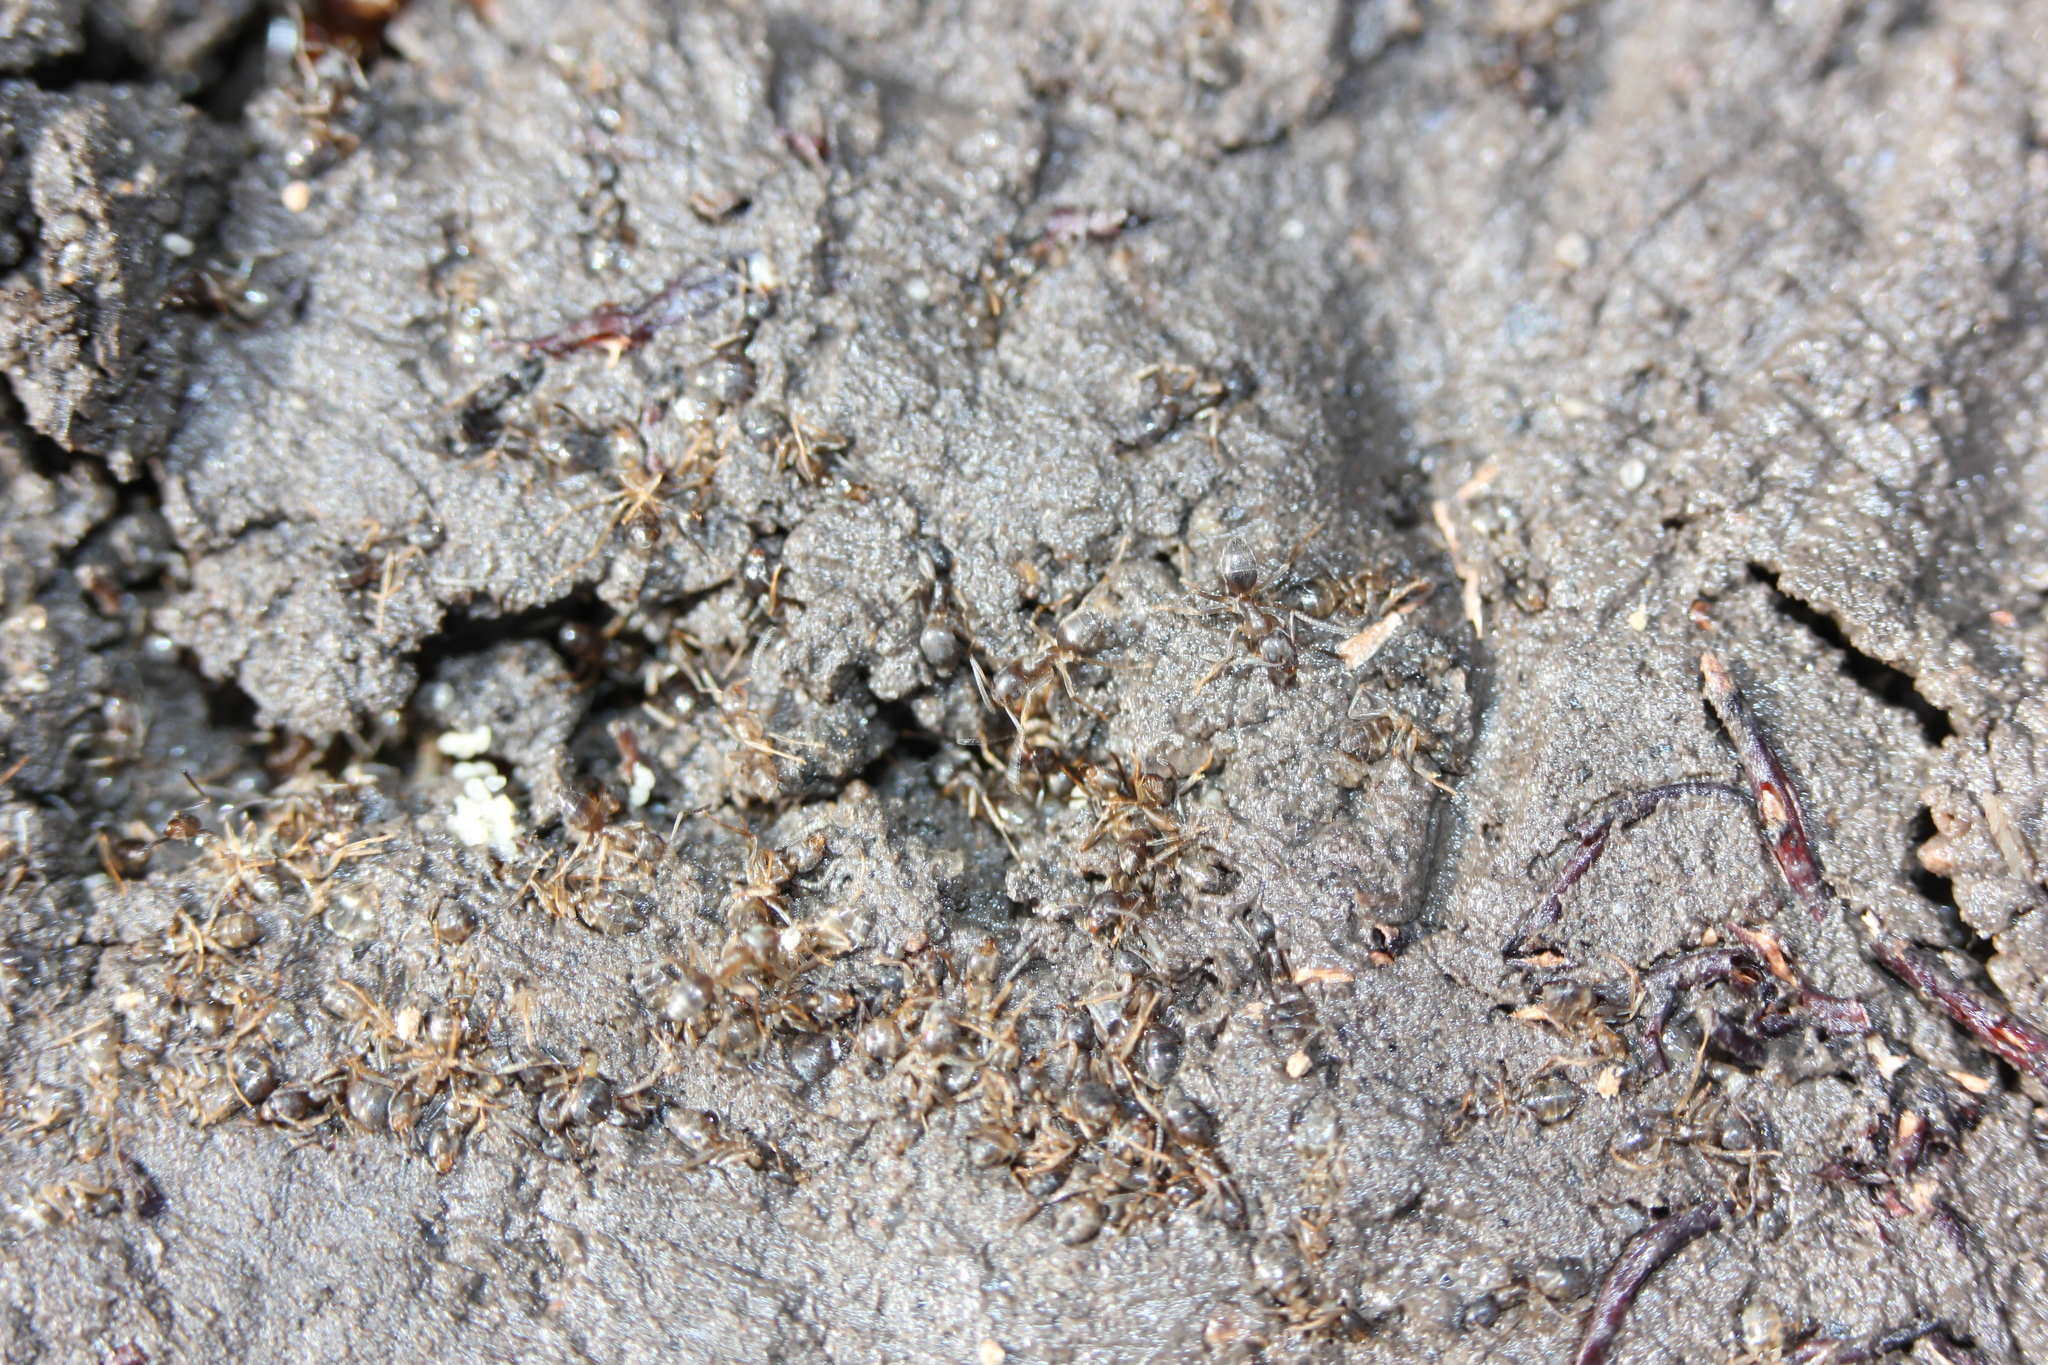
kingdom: Animalia
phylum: Arthropoda
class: Insecta
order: Hymenoptera
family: Formicidae
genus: Tapinoma
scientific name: Tapinoma sessile
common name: Odorous house ant
